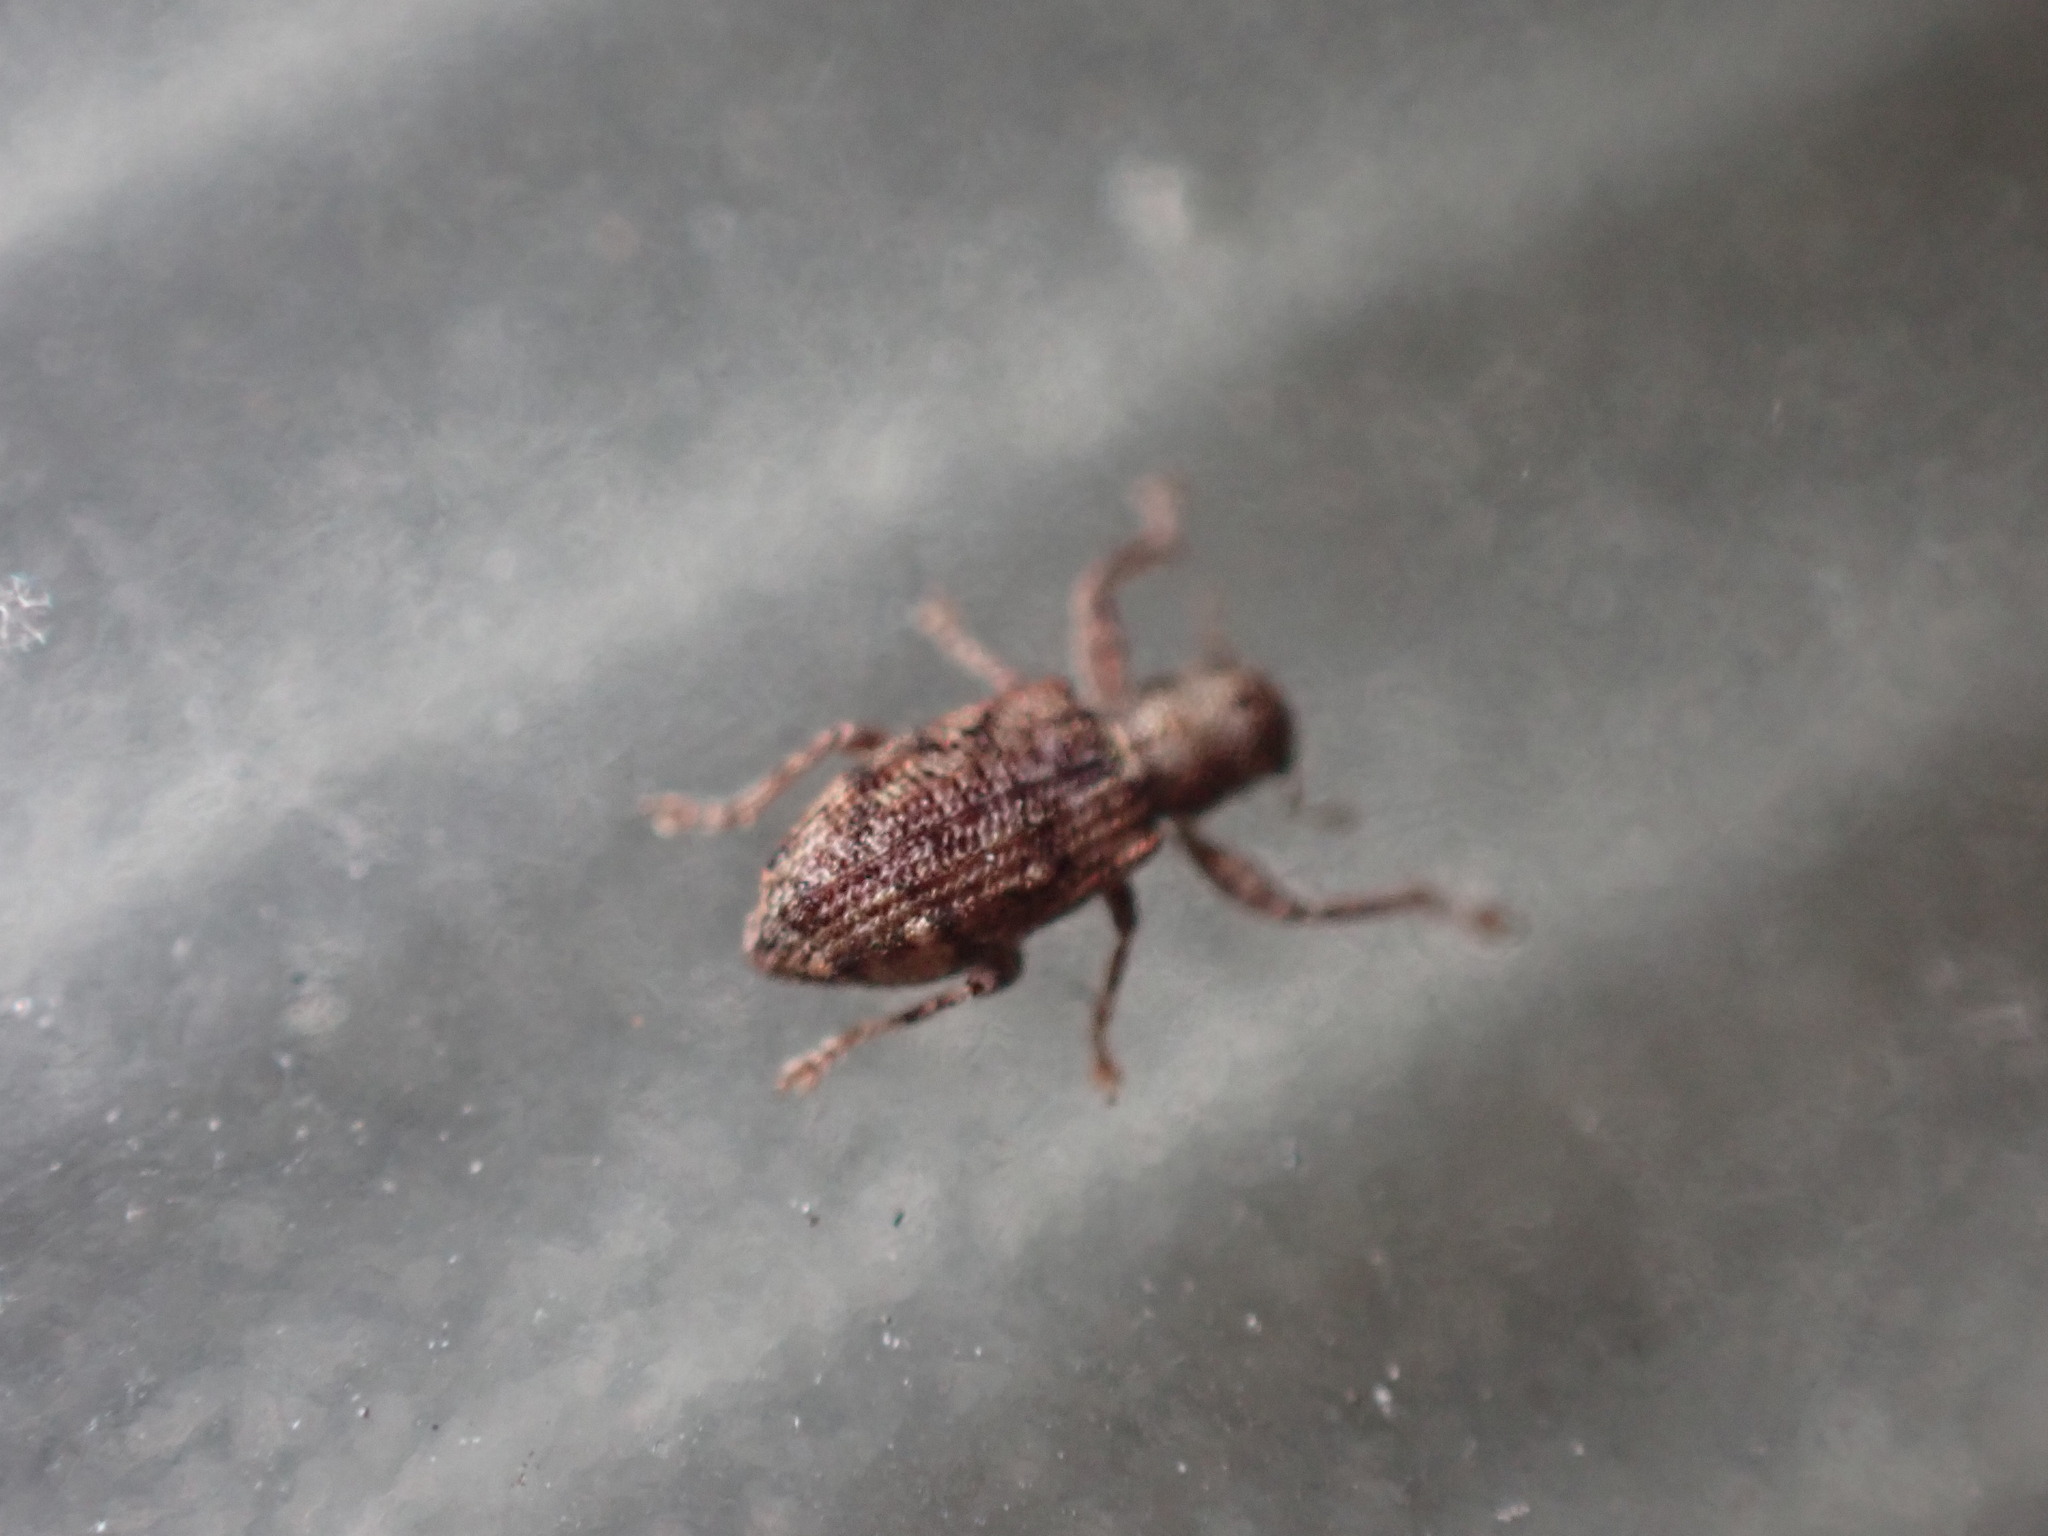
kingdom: Animalia
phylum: Arthropoda
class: Insecta
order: Coleoptera
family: Curculionidae
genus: Scalaventer
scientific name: Scalaventer caymani
